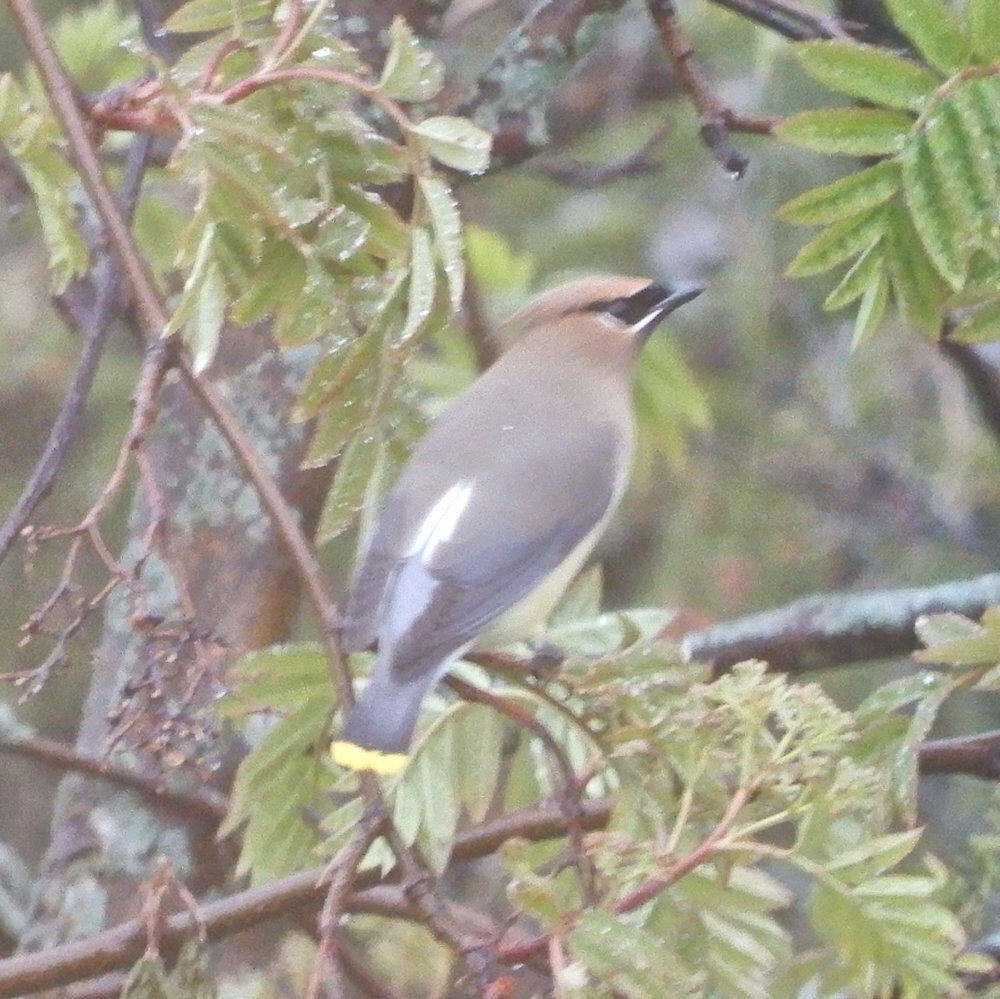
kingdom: Animalia
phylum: Chordata
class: Aves
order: Passeriformes
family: Bombycillidae
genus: Bombycilla
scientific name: Bombycilla cedrorum
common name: Cedar waxwing
